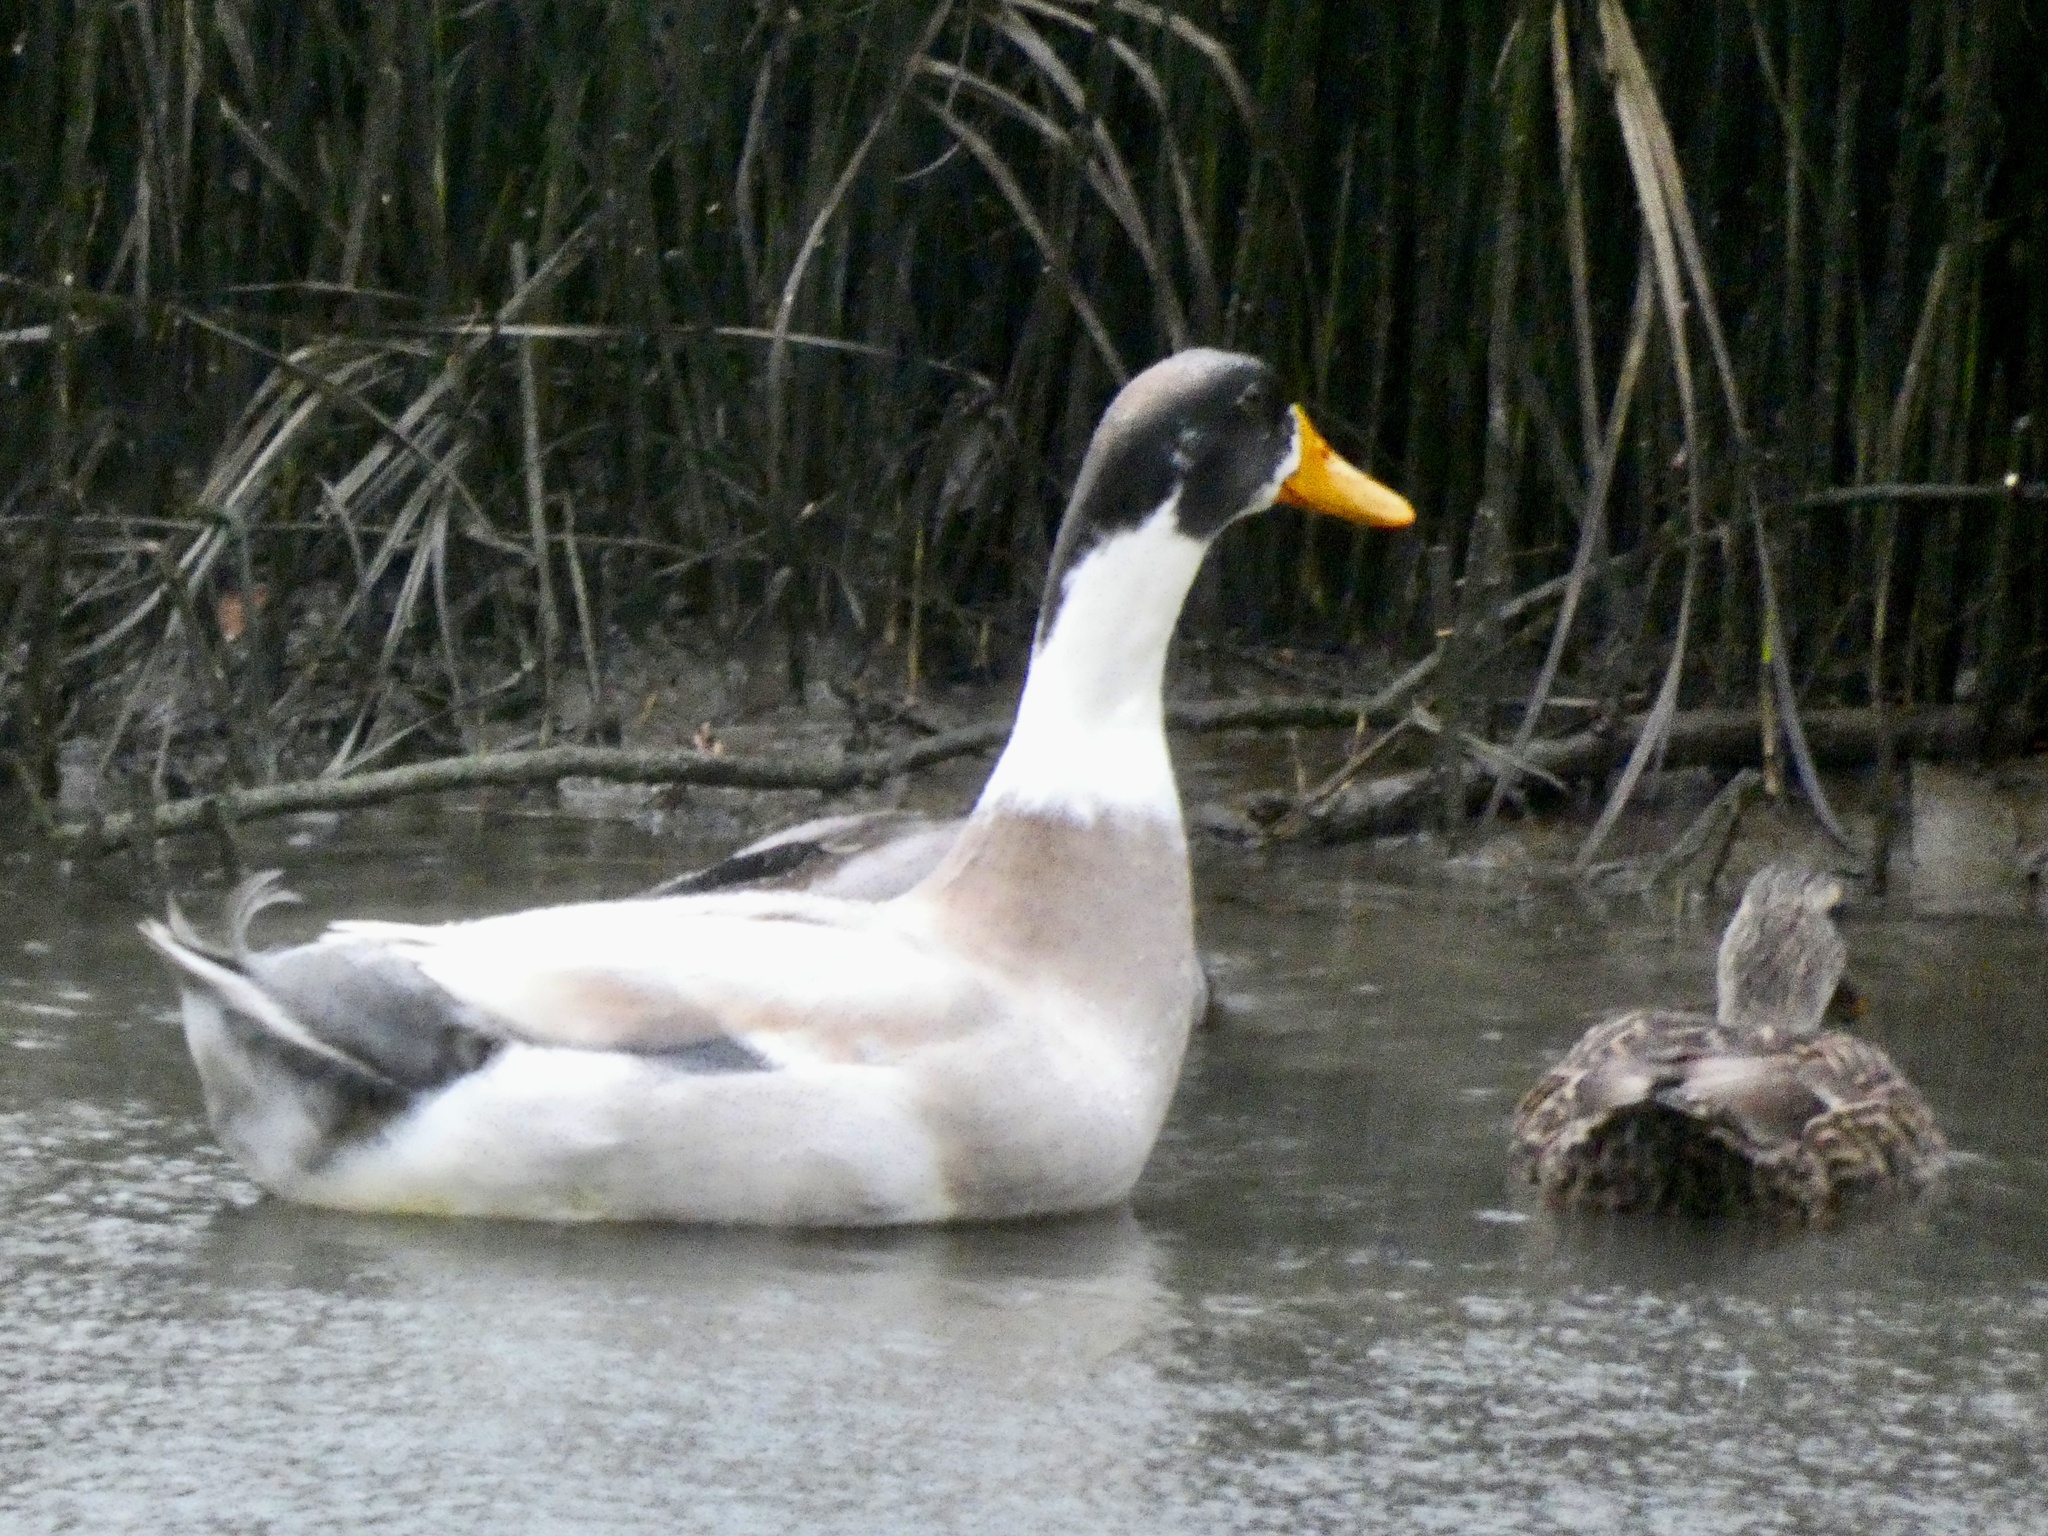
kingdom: Animalia
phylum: Chordata
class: Aves
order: Anseriformes
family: Anatidae
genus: Anas
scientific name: Anas platyrhynchos
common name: Mallard
